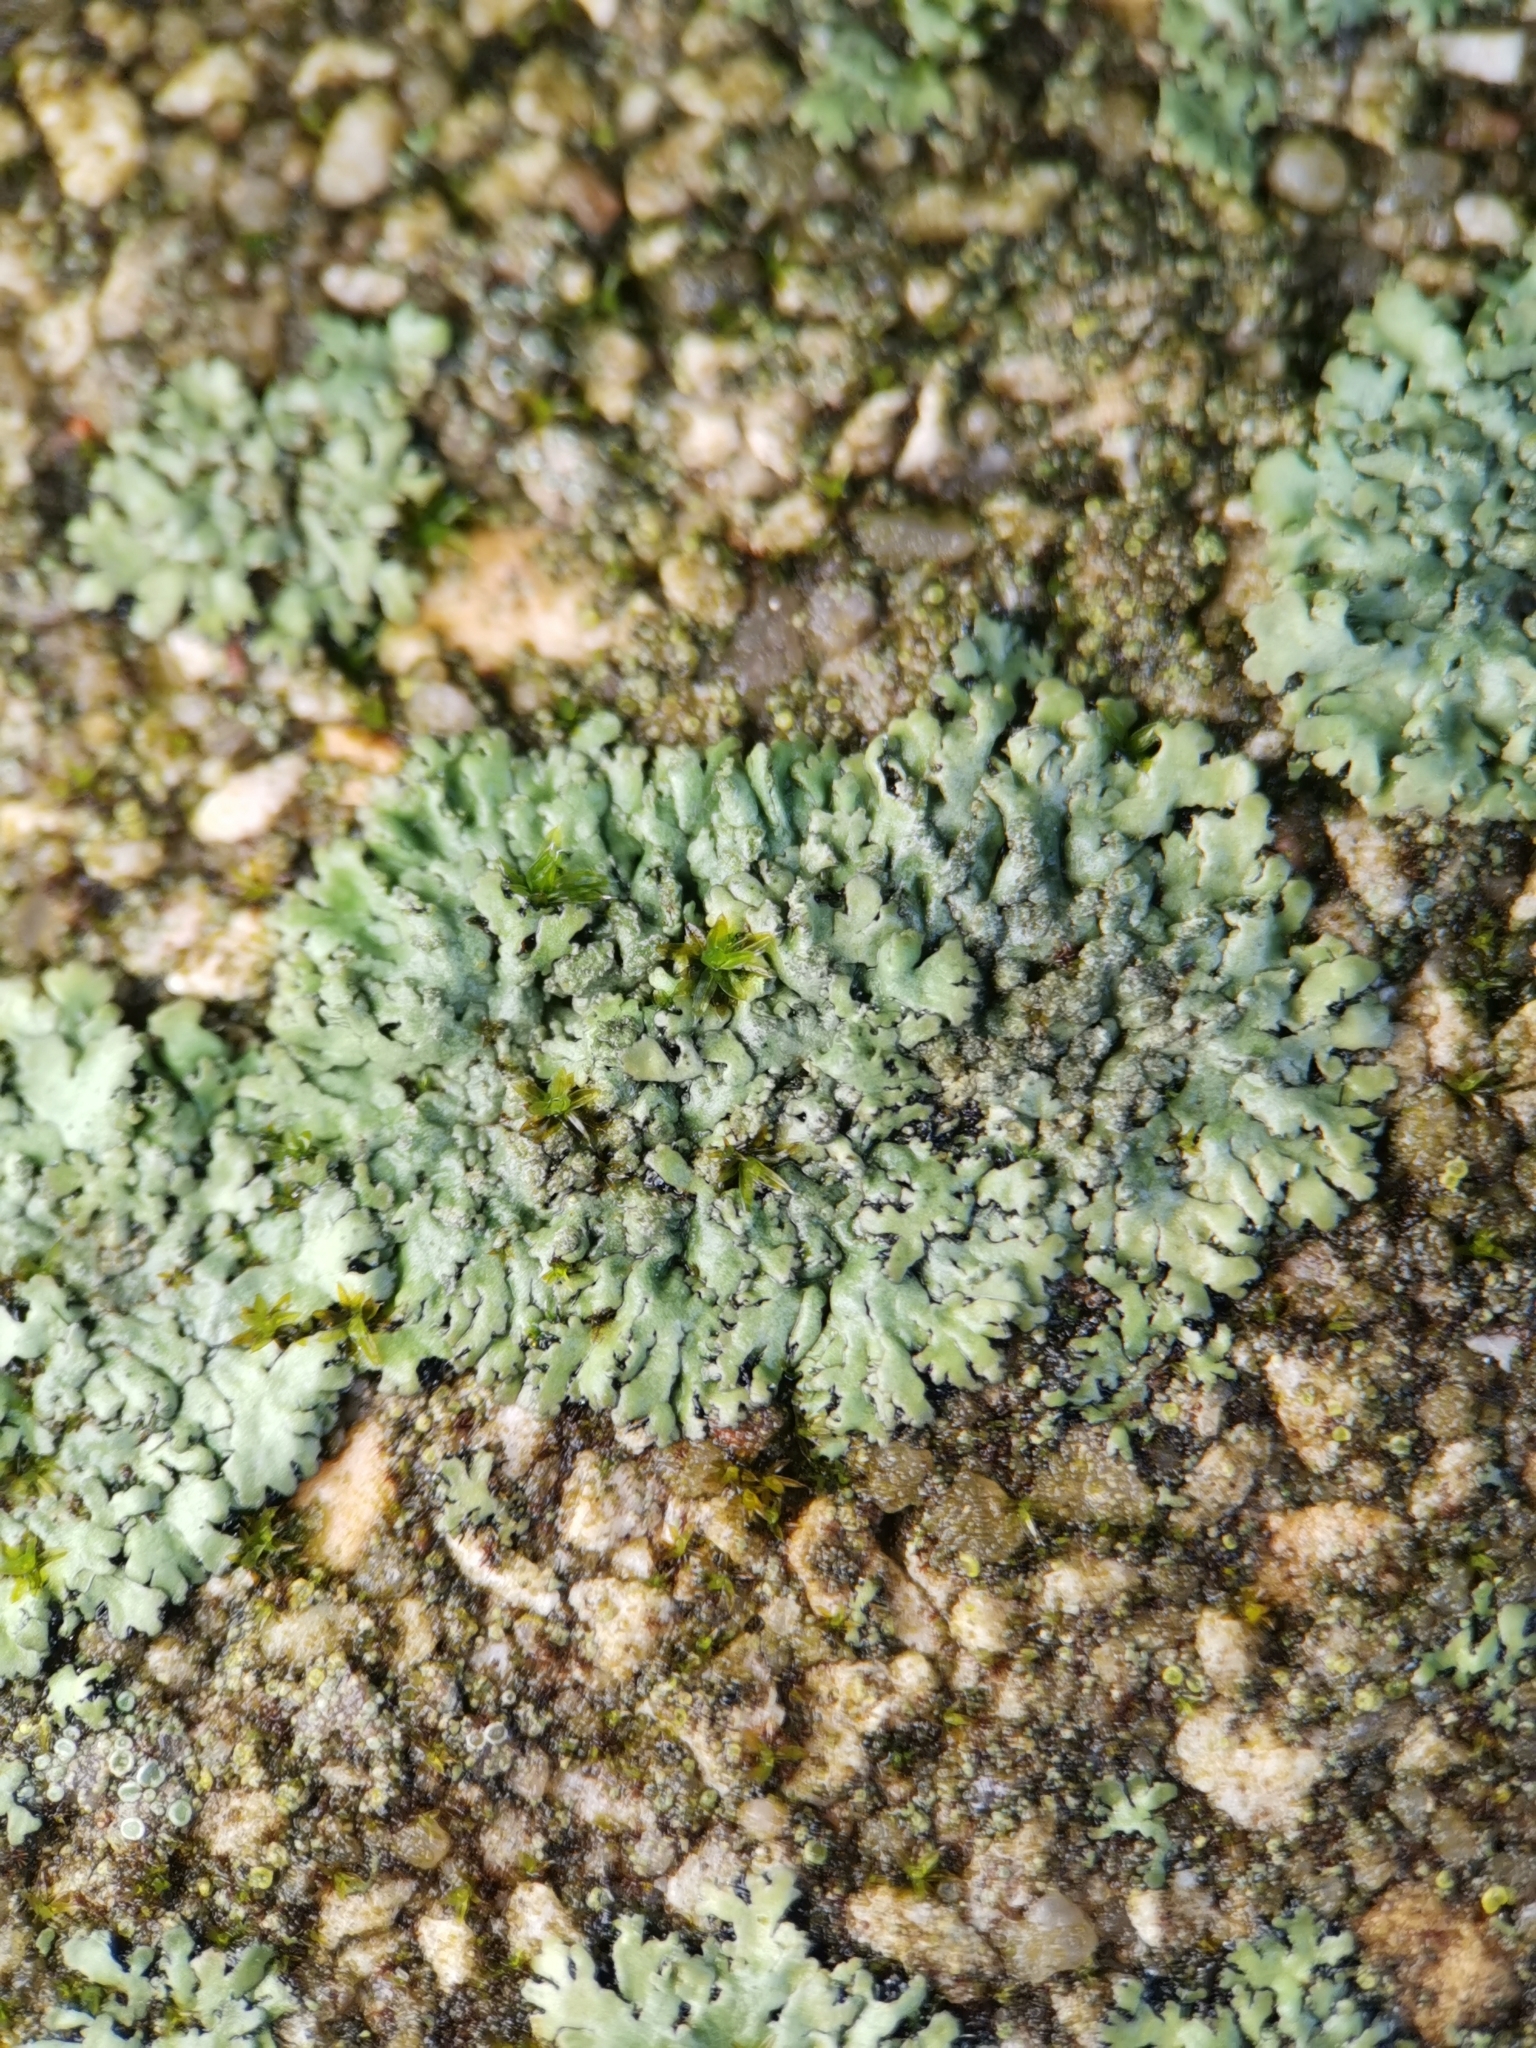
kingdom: Fungi
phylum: Ascomycota
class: Lecanoromycetes
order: Caliciales
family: Physciaceae
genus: Phaeophyscia
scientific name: Phaeophyscia orbicularis
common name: Mealy shadow lichen
